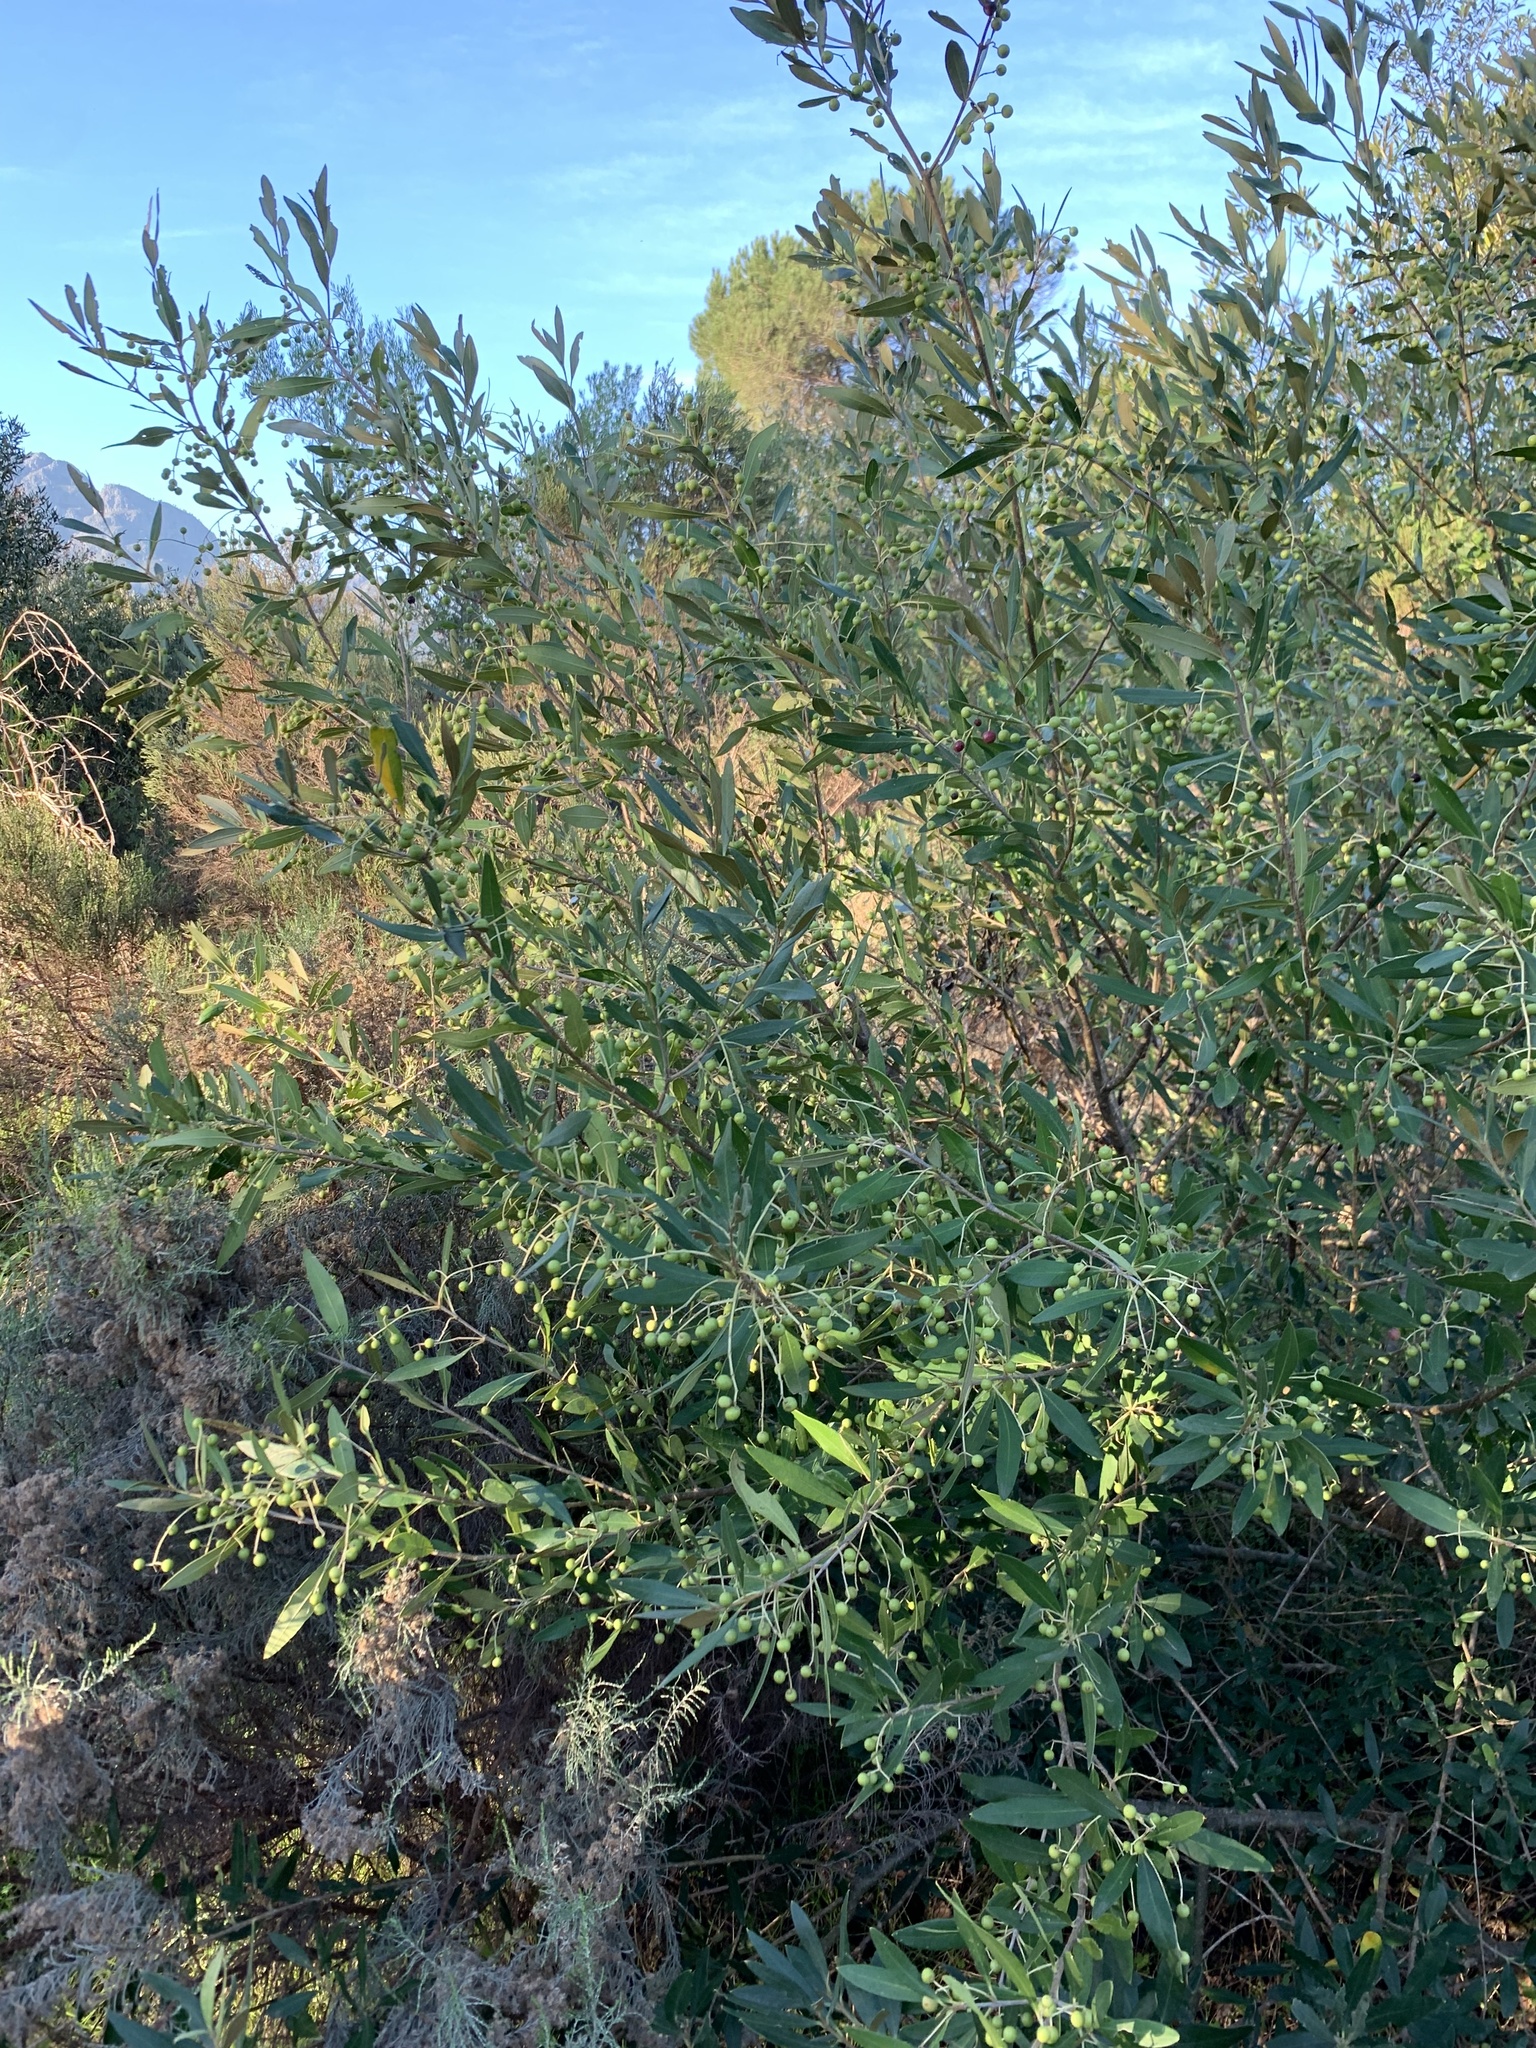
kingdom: Plantae
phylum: Tracheophyta
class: Magnoliopsida
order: Lamiales
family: Oleaceae
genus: Olea
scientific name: Olea europaea
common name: Olive
